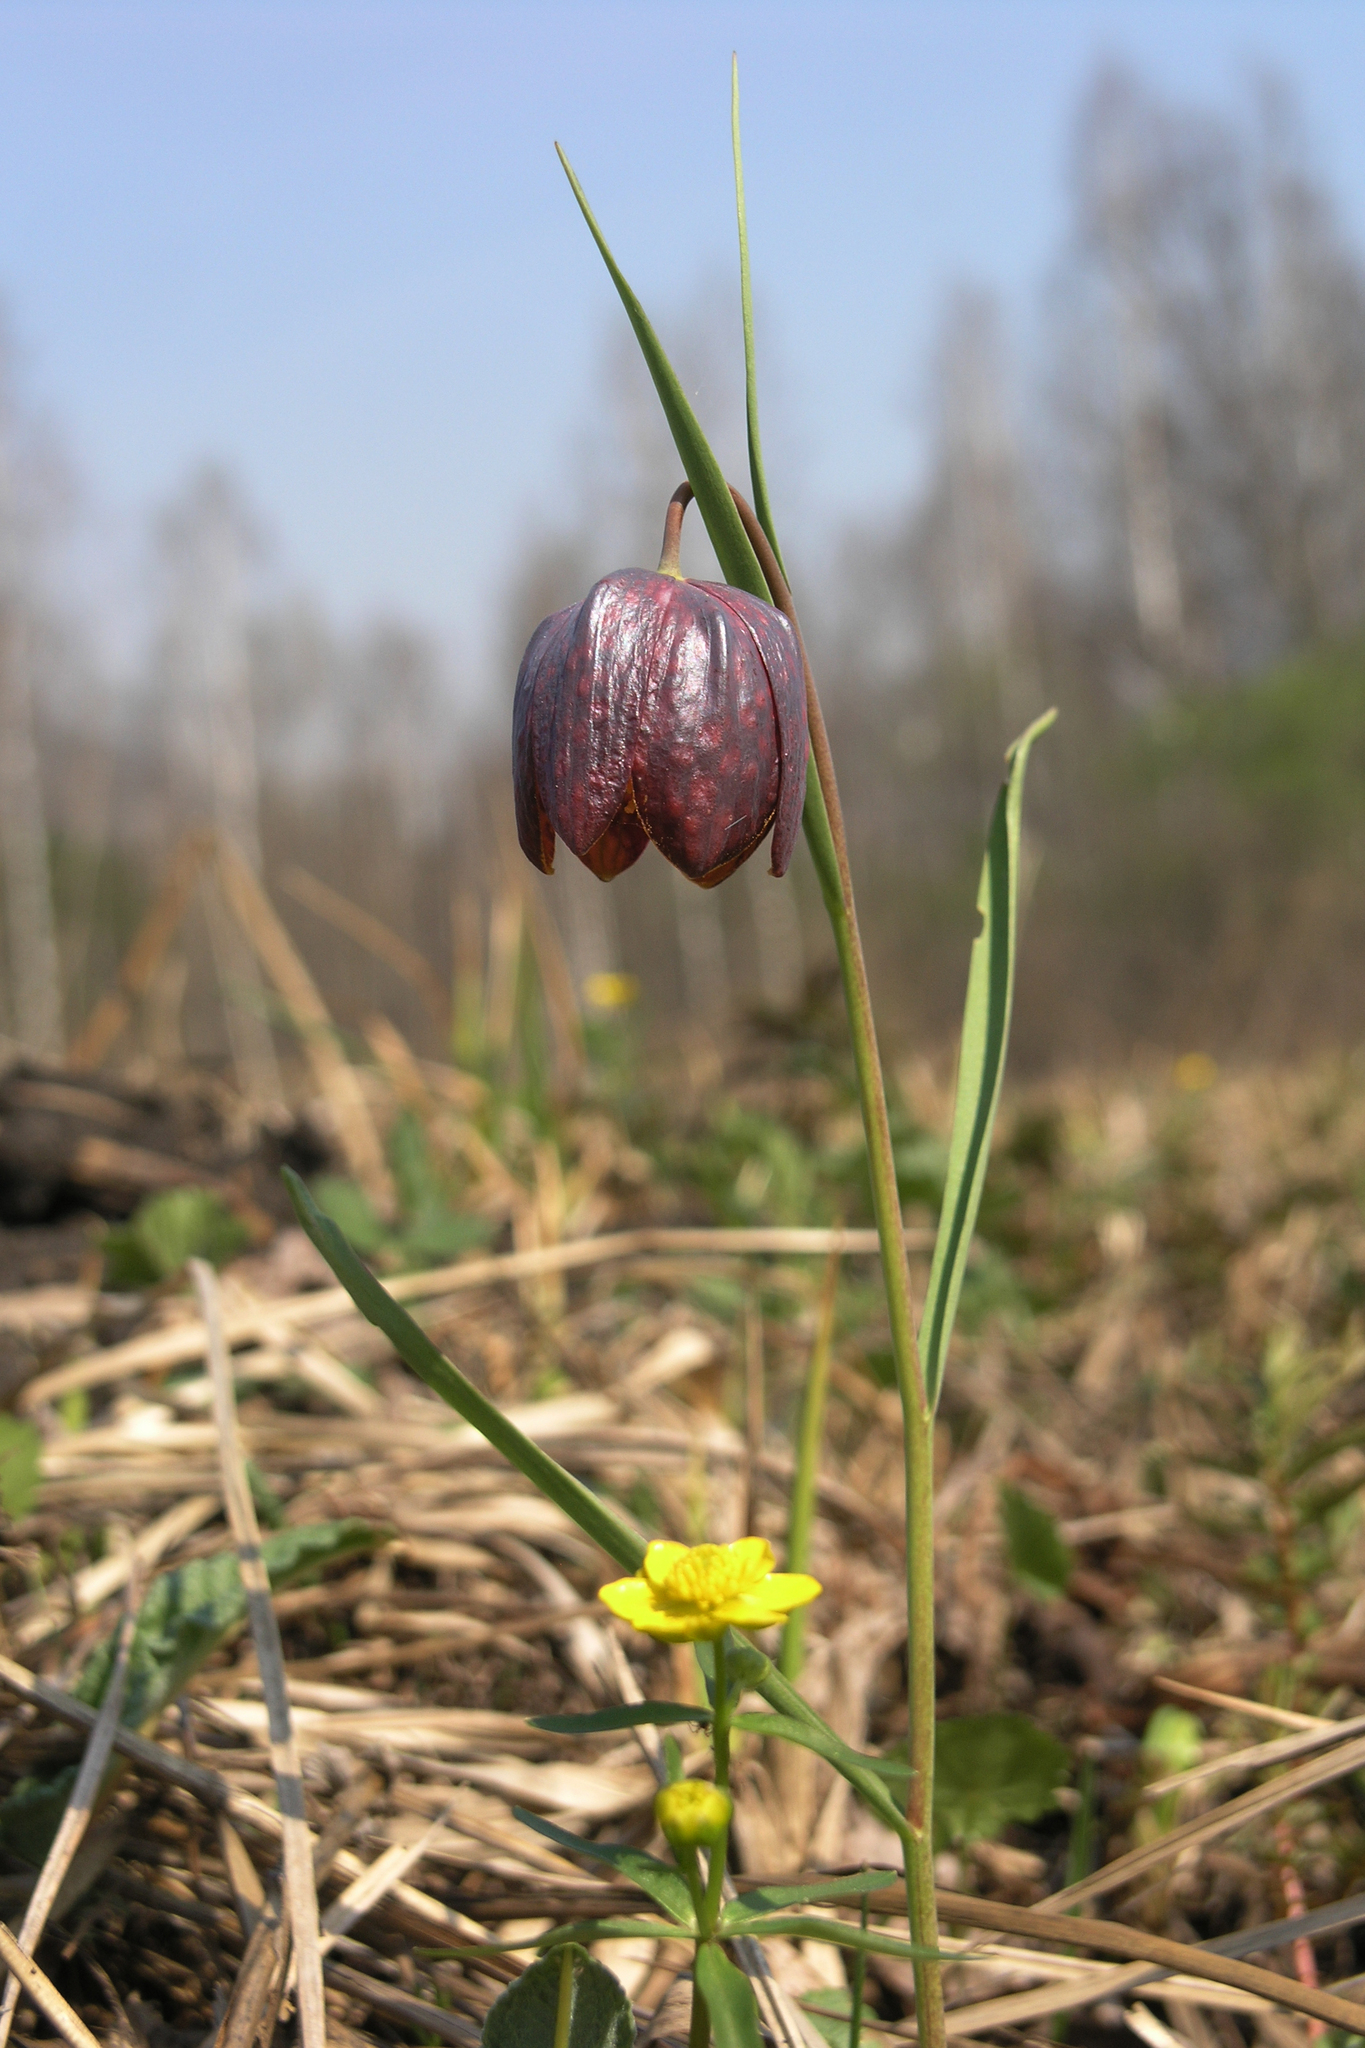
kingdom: Plantae
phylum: Tracheophyta
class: Liliopsida
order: Liliales
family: Liliaceae
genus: Fritillaria
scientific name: Fritillaria meleagris
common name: Fritillary
